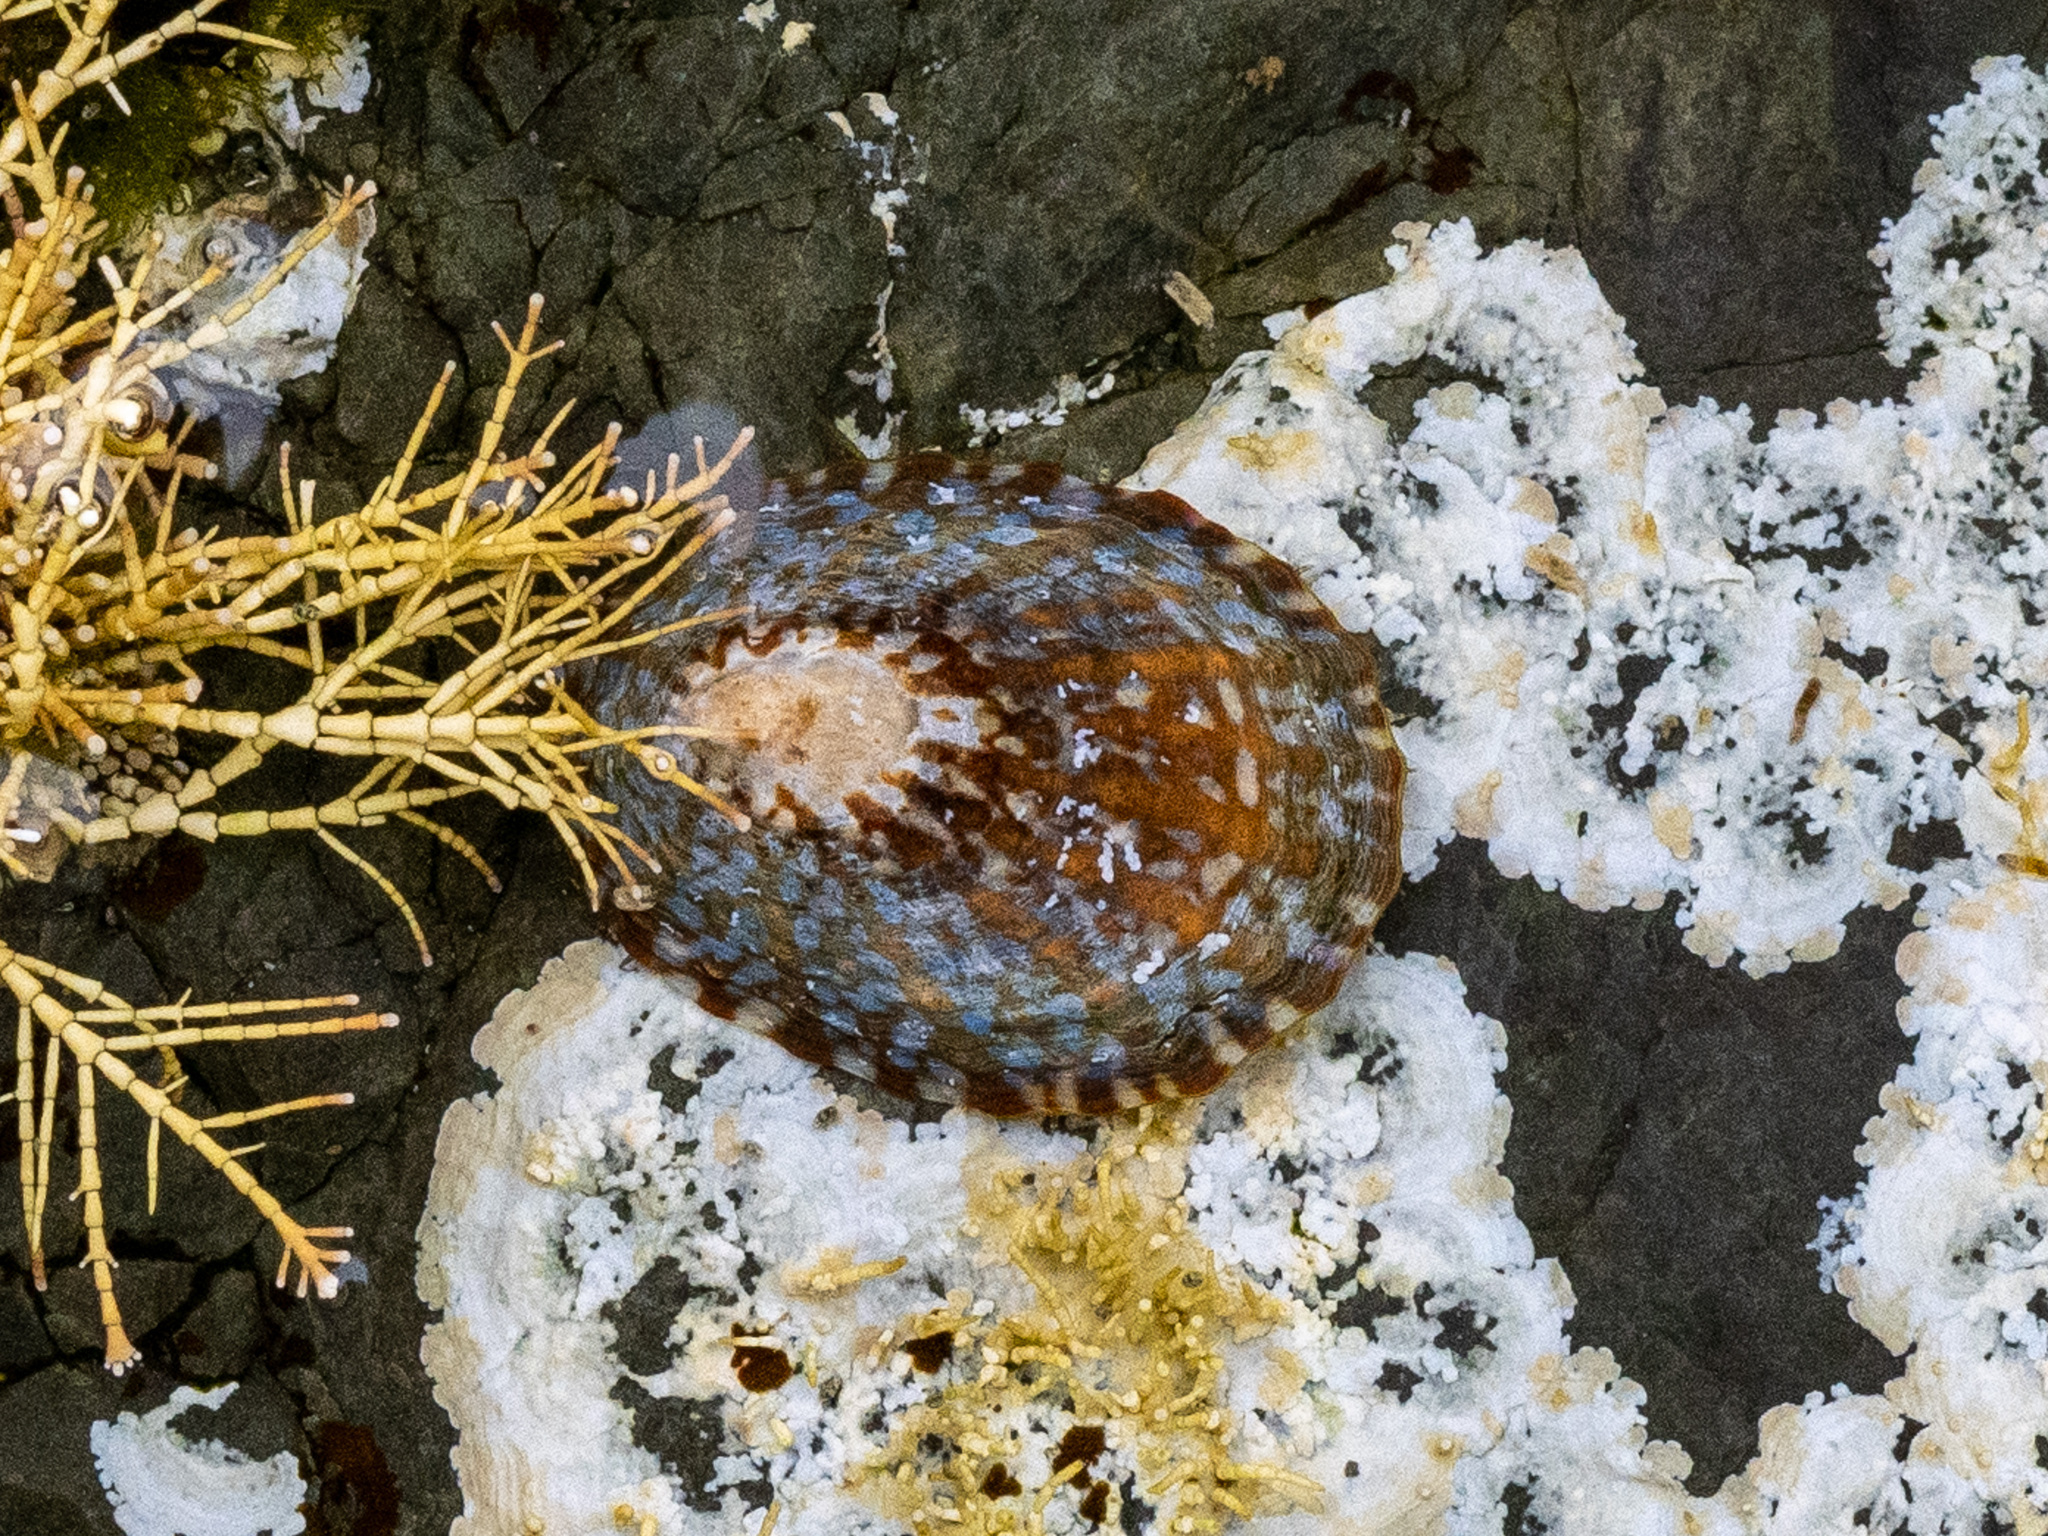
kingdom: Animalia
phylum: Mollusca
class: Gastropoda
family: Nacellidae
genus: Cellana
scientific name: Cellana denticulata
